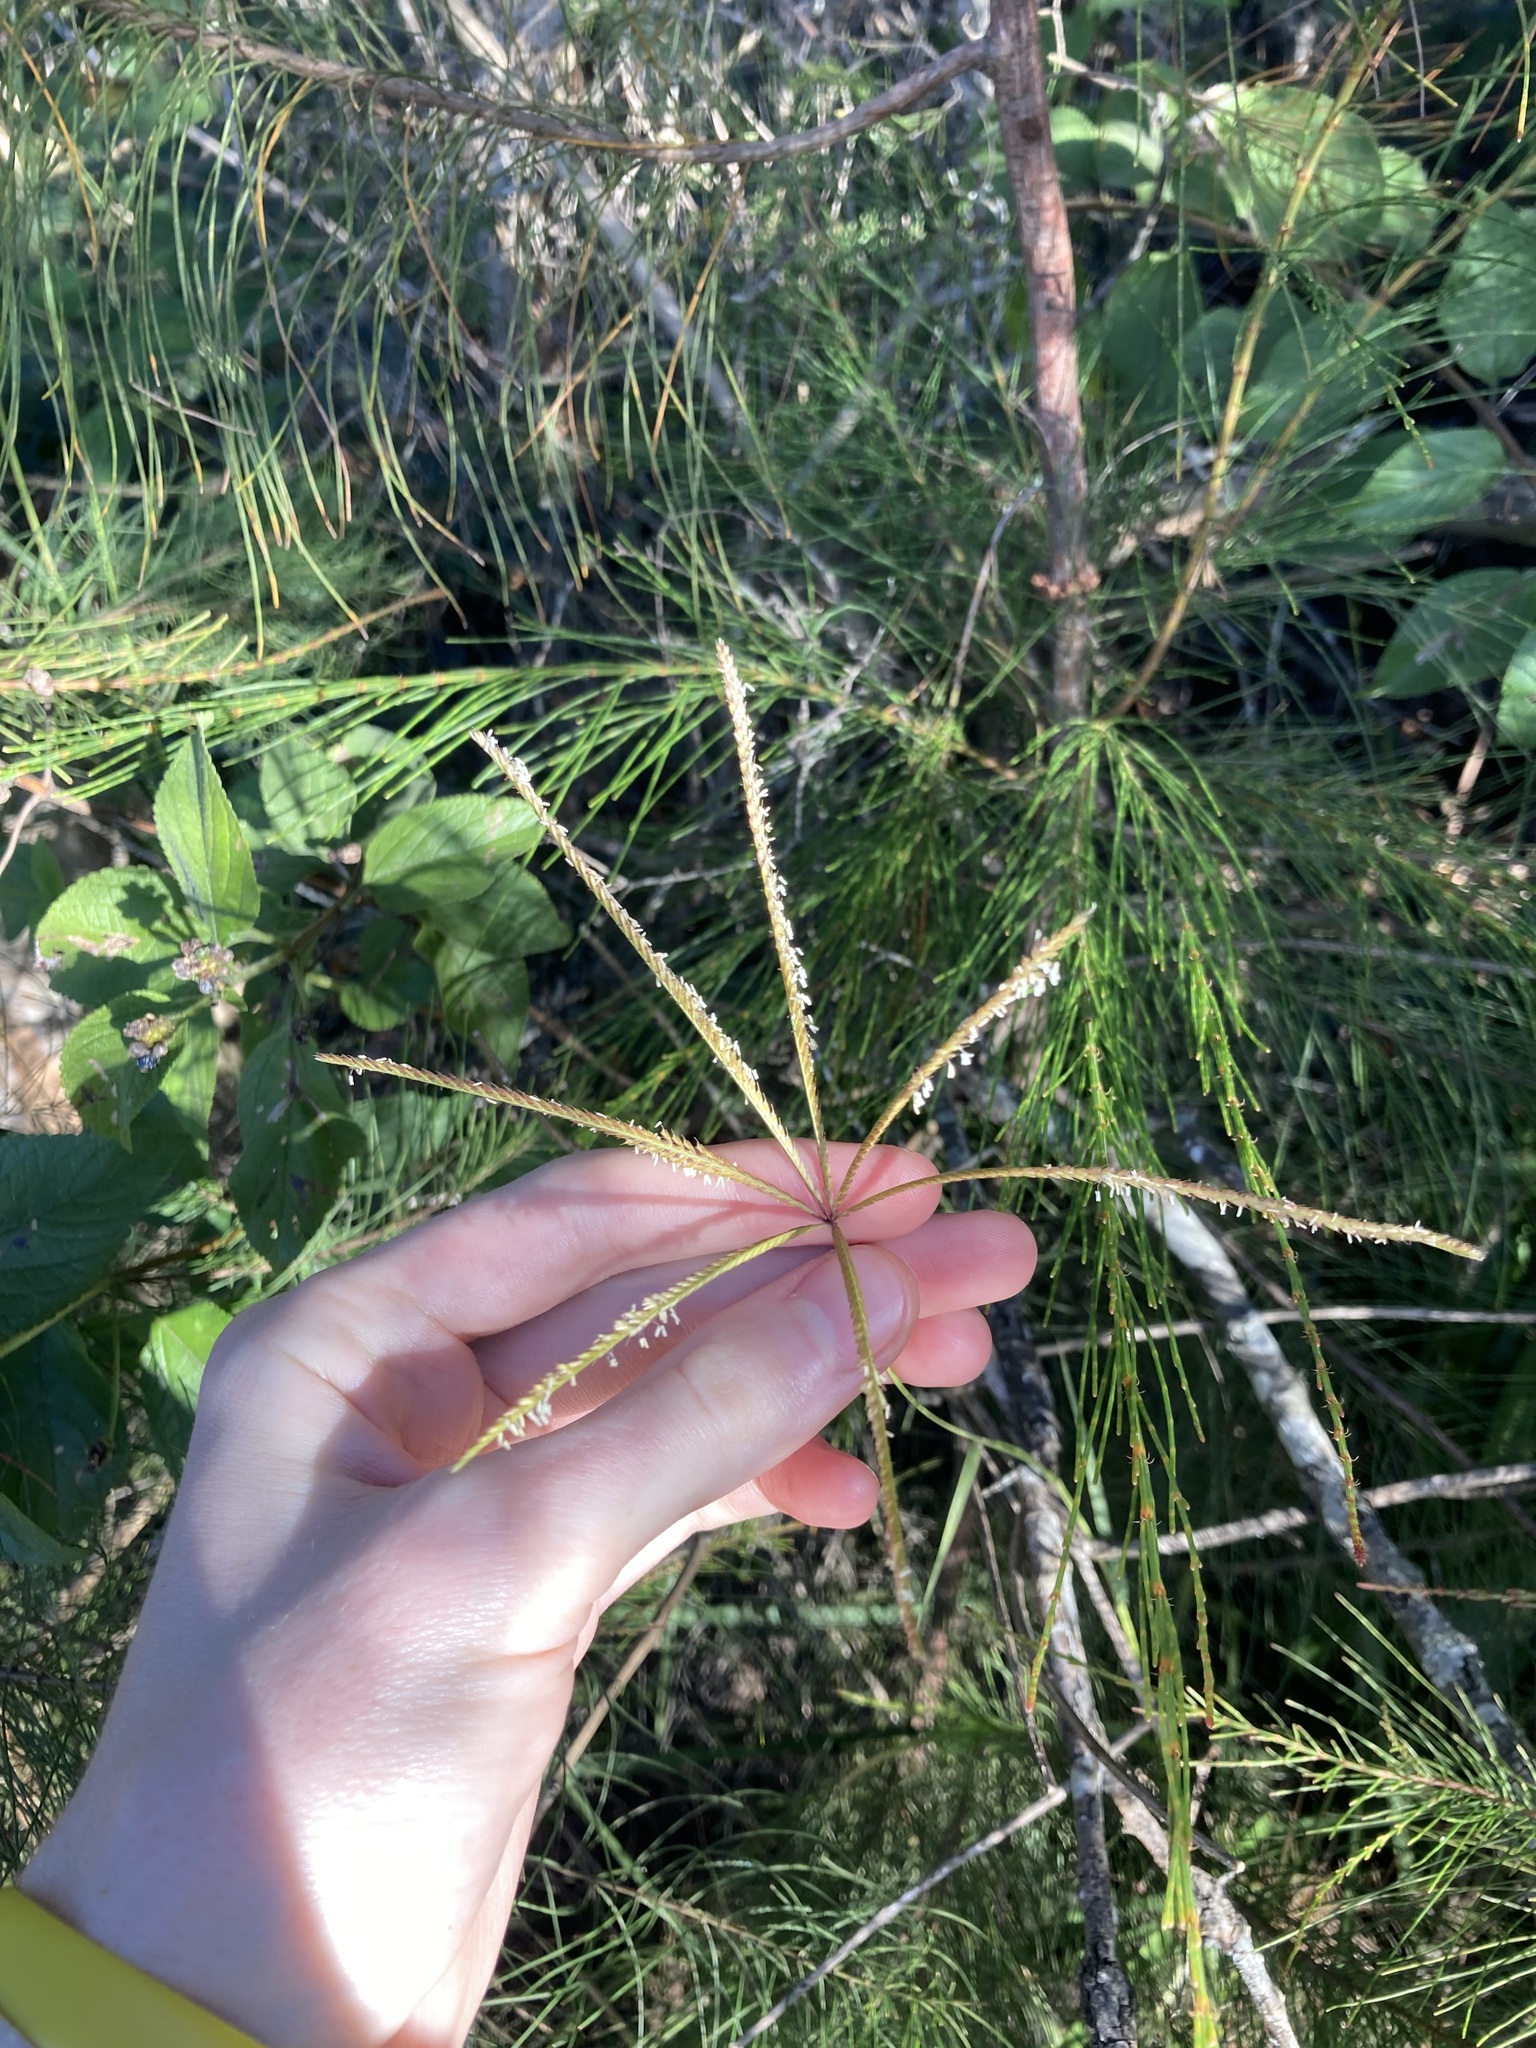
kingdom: Plantae
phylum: Tracheophyta
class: Liliopsida
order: Poales
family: Poaceae
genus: Chloris
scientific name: Chloris gayana
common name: Rhodes grass
